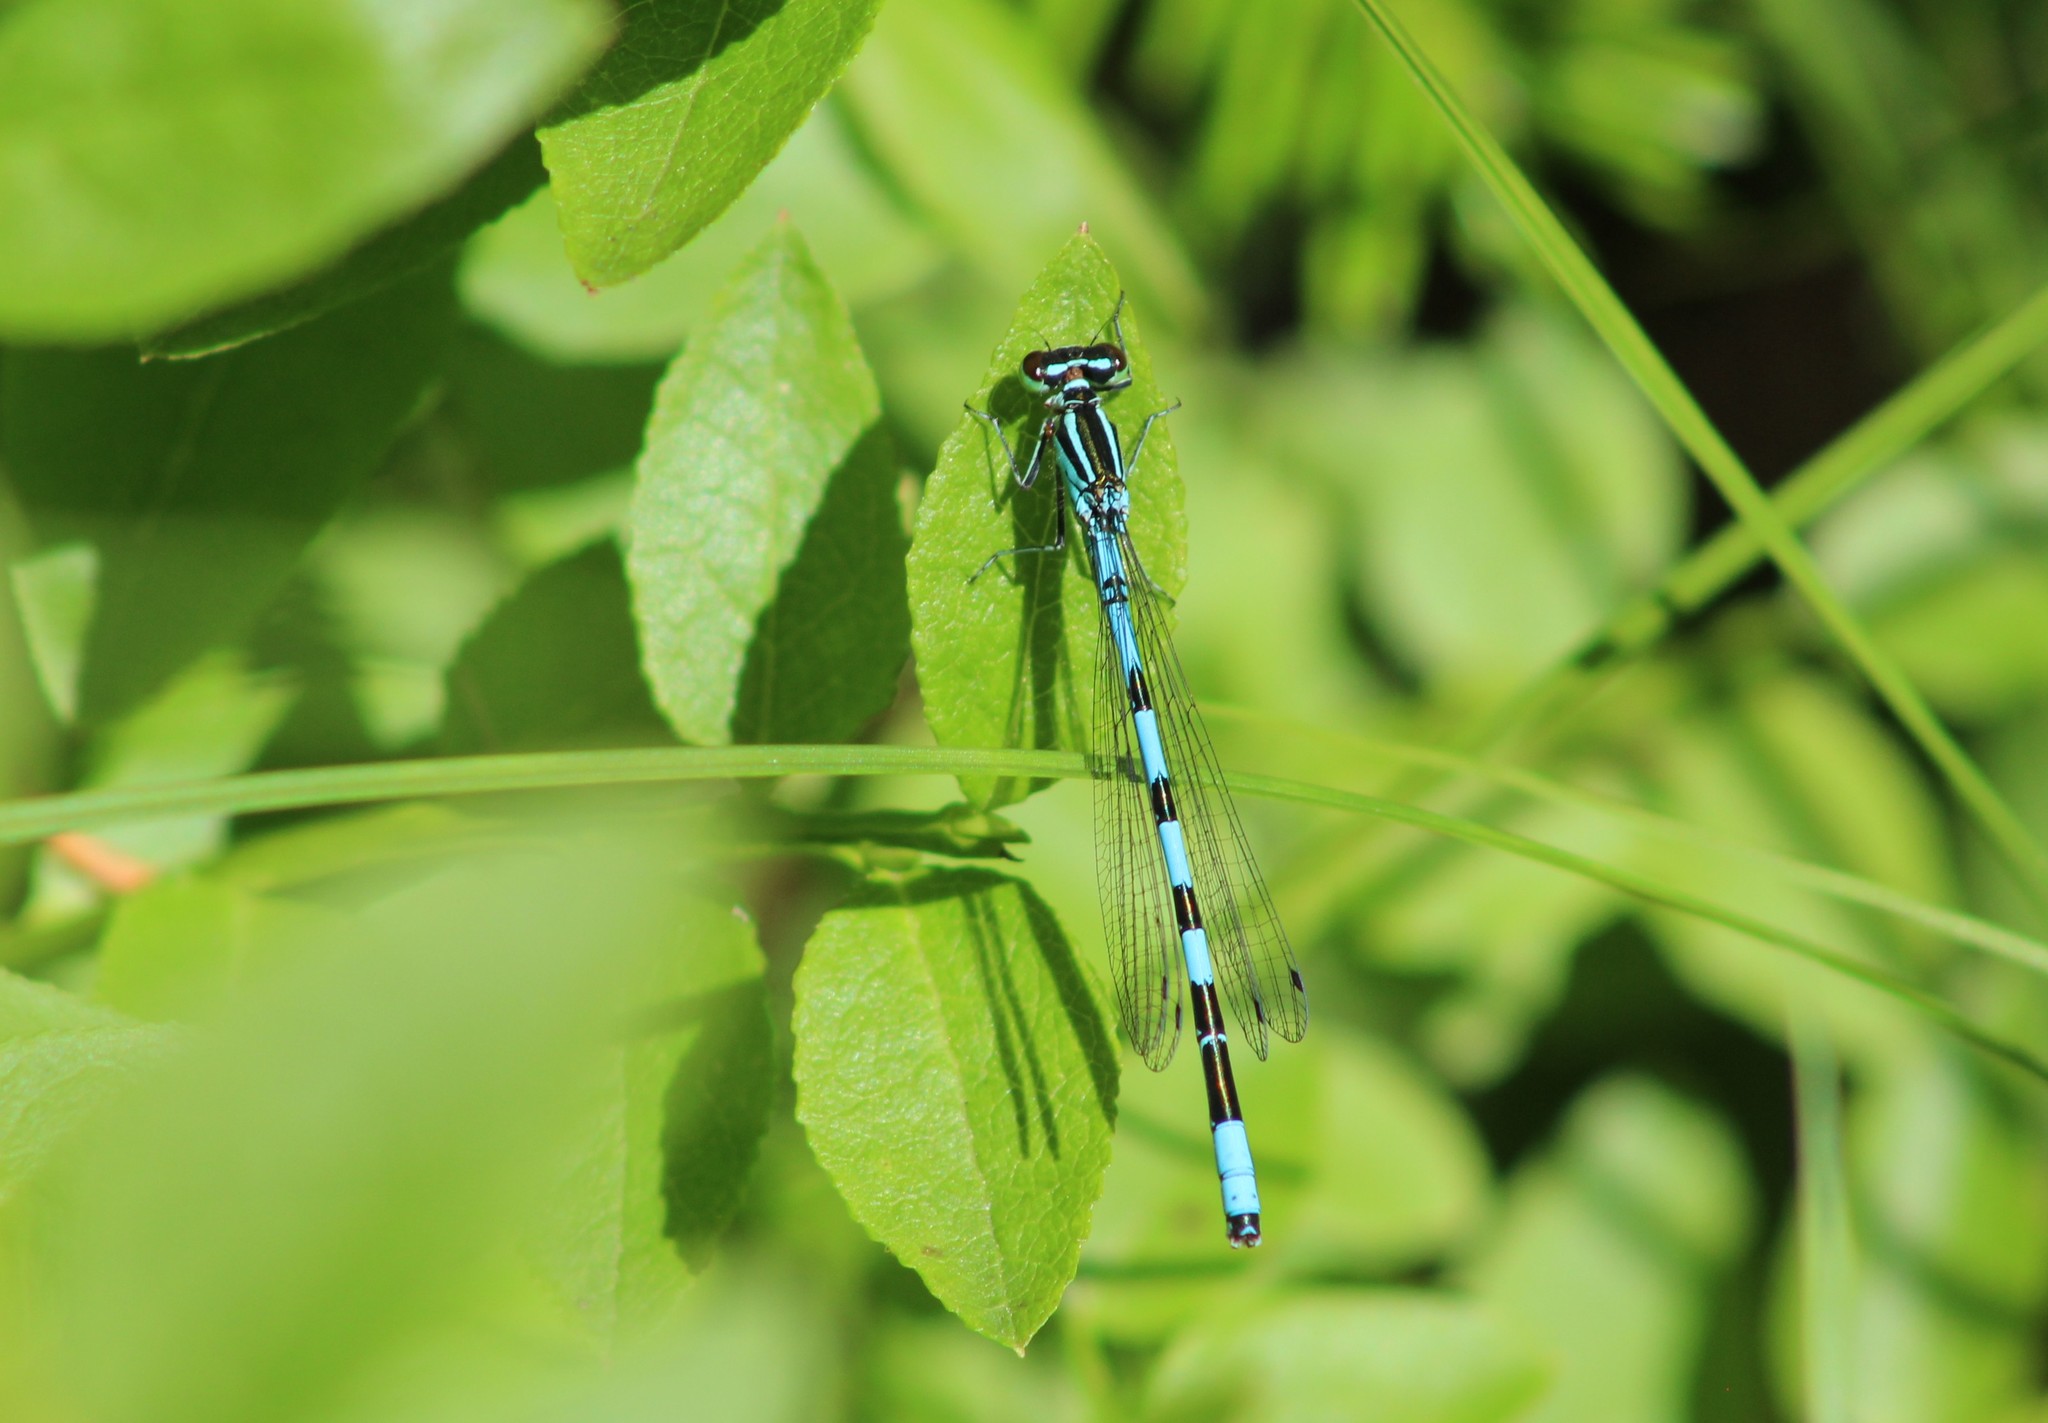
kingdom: Animalia
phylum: Arthropoda
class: Insecta
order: Odonata
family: Coenagrionidae
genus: Coenagrion
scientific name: Coenagrion hastulatum
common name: Spearhead bluet
